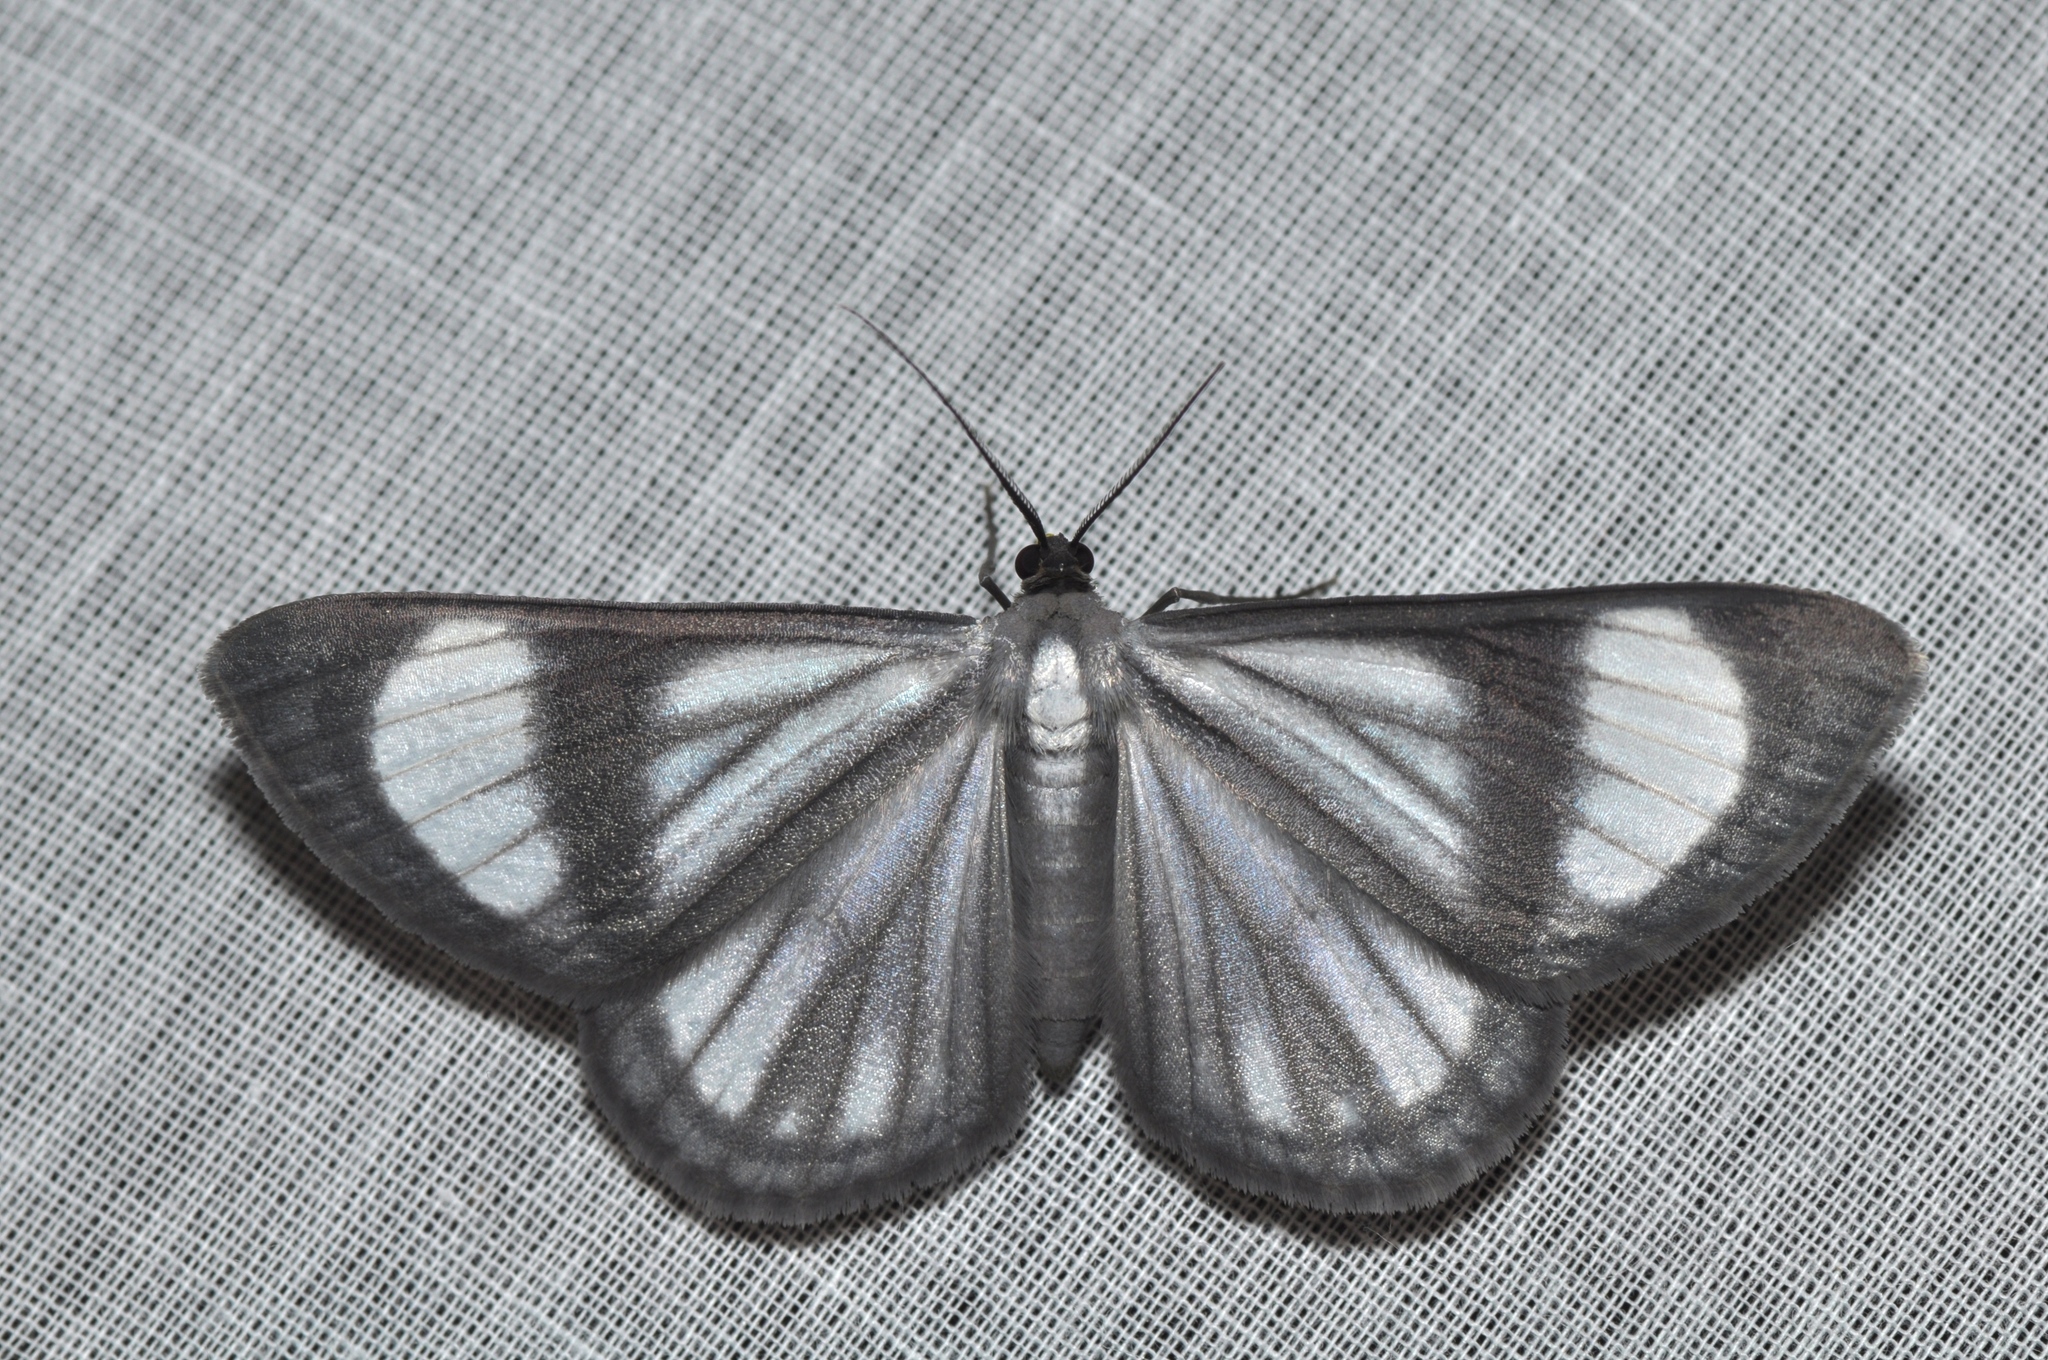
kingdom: Animalia
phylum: Arthropoda
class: Insecta
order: Lepidoptera
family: Geometridae
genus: Genussa
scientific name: Genussa famulata
